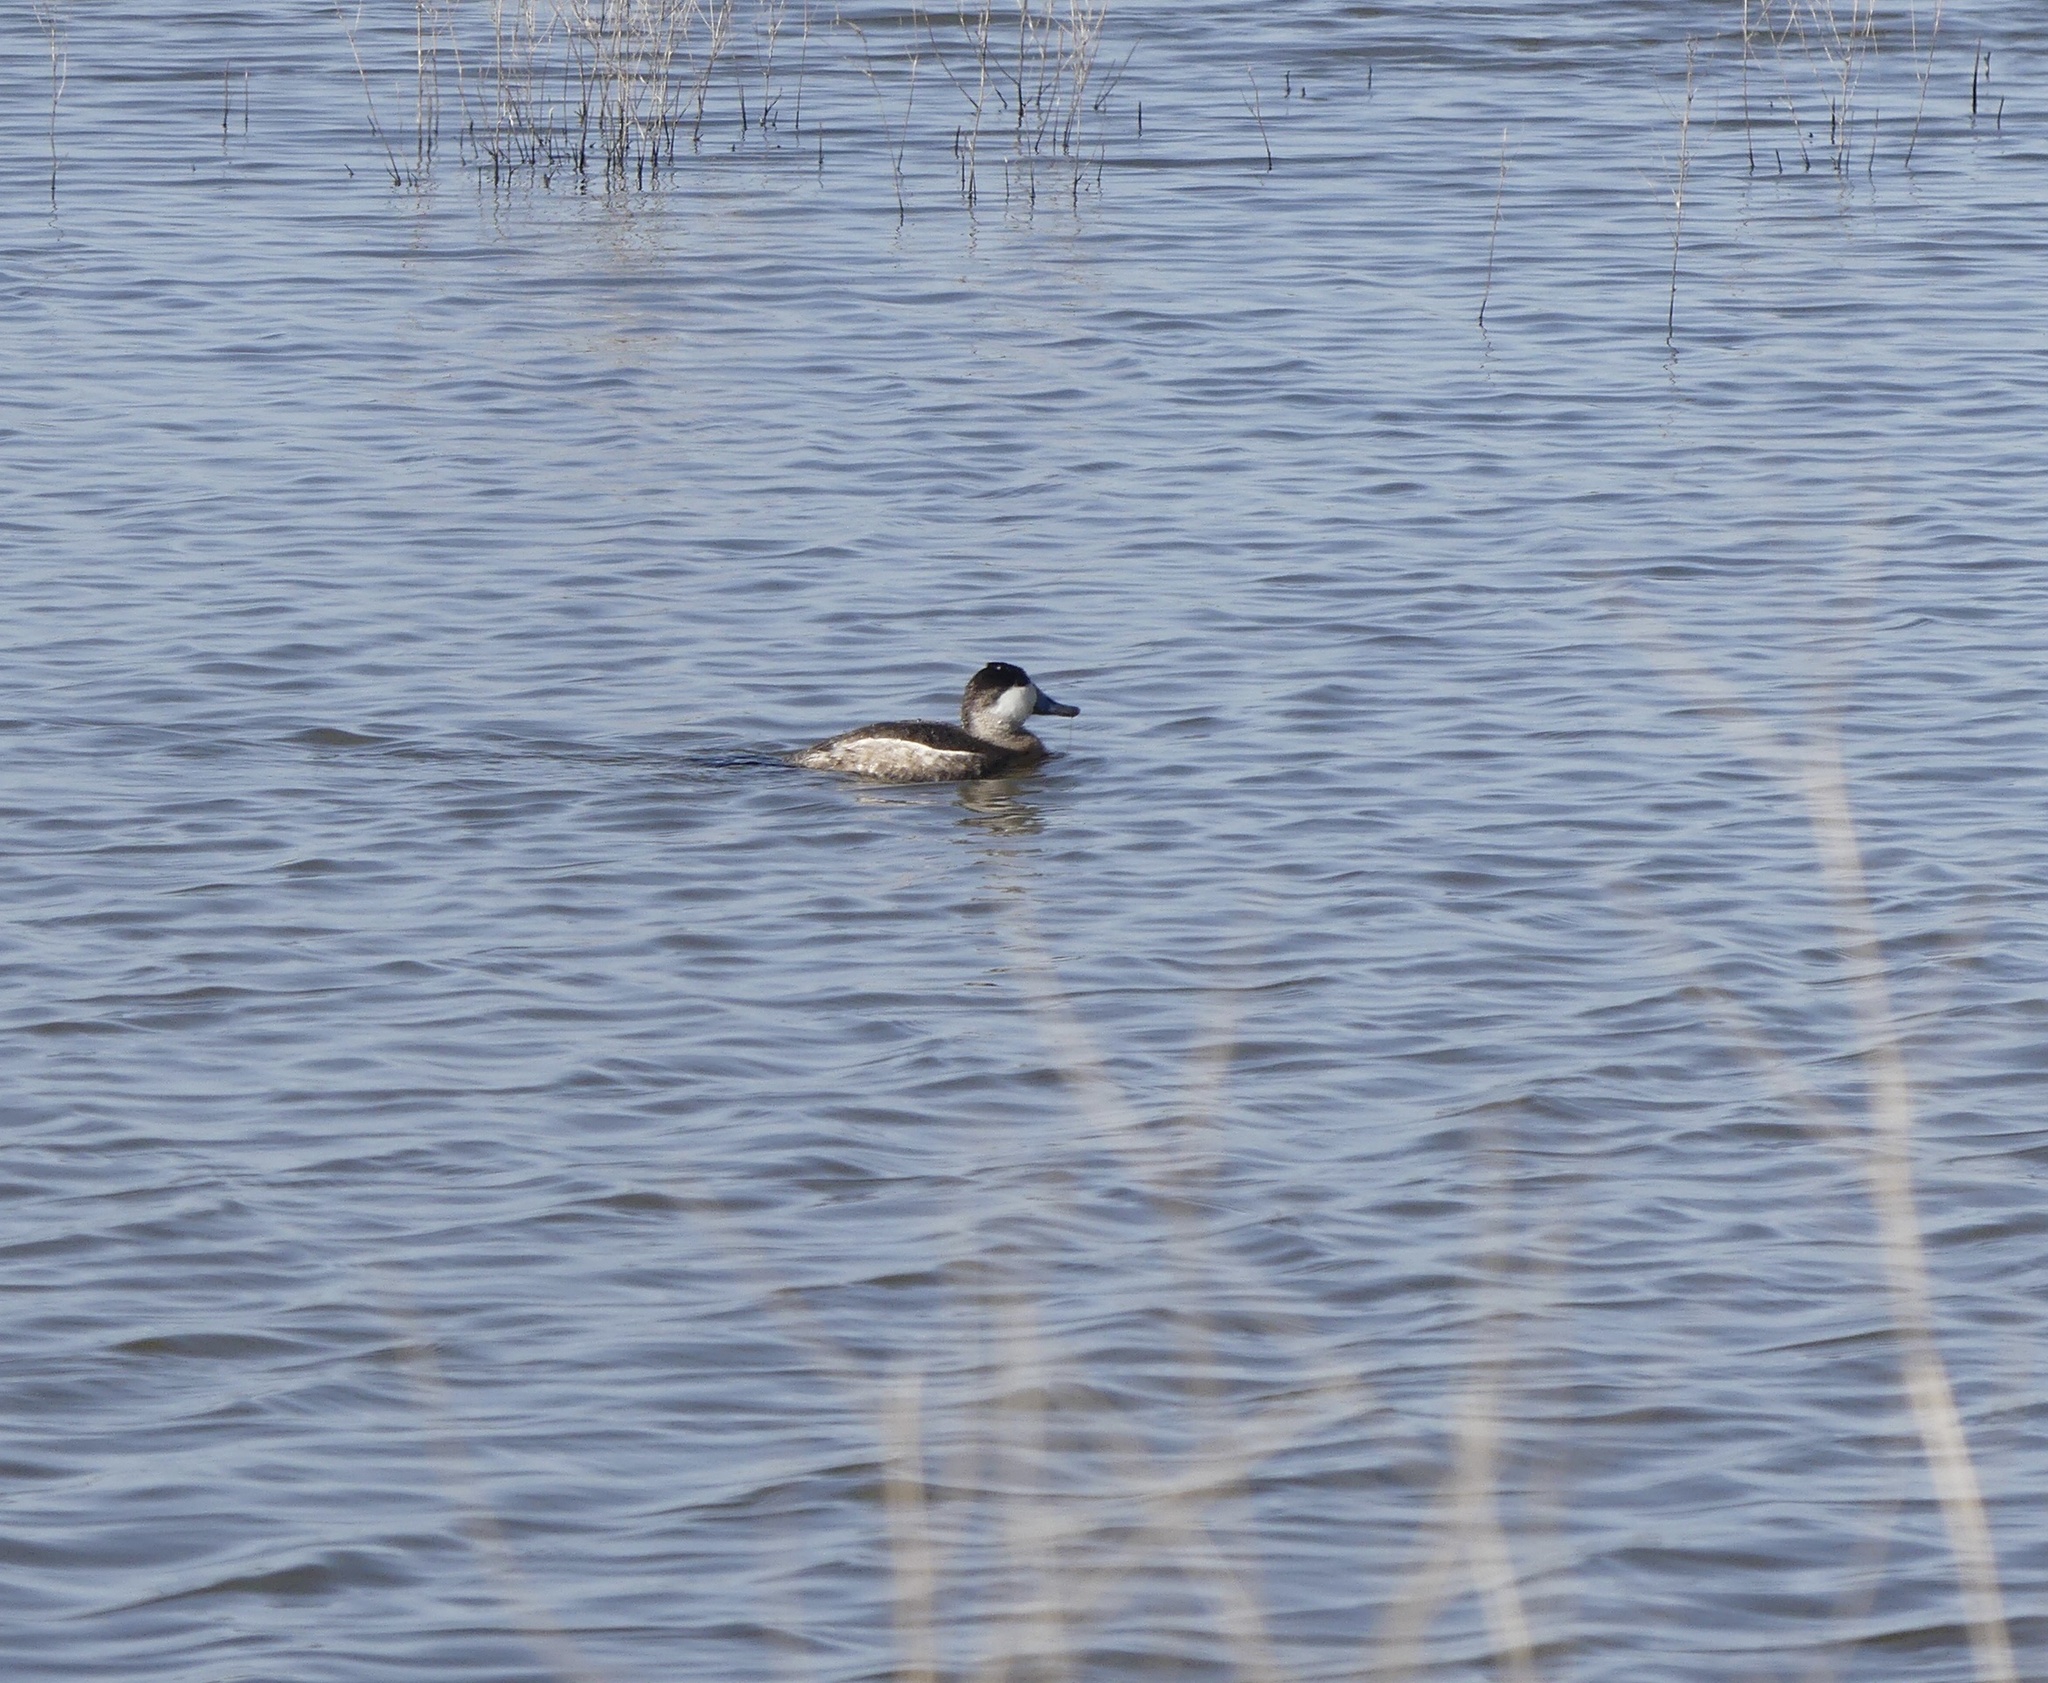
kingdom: Animalia
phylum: Chordata
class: Aves
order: Anseriformes
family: Anatidae
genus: Oxyura
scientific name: Oxyura jamaicensis
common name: Ruddy duck
